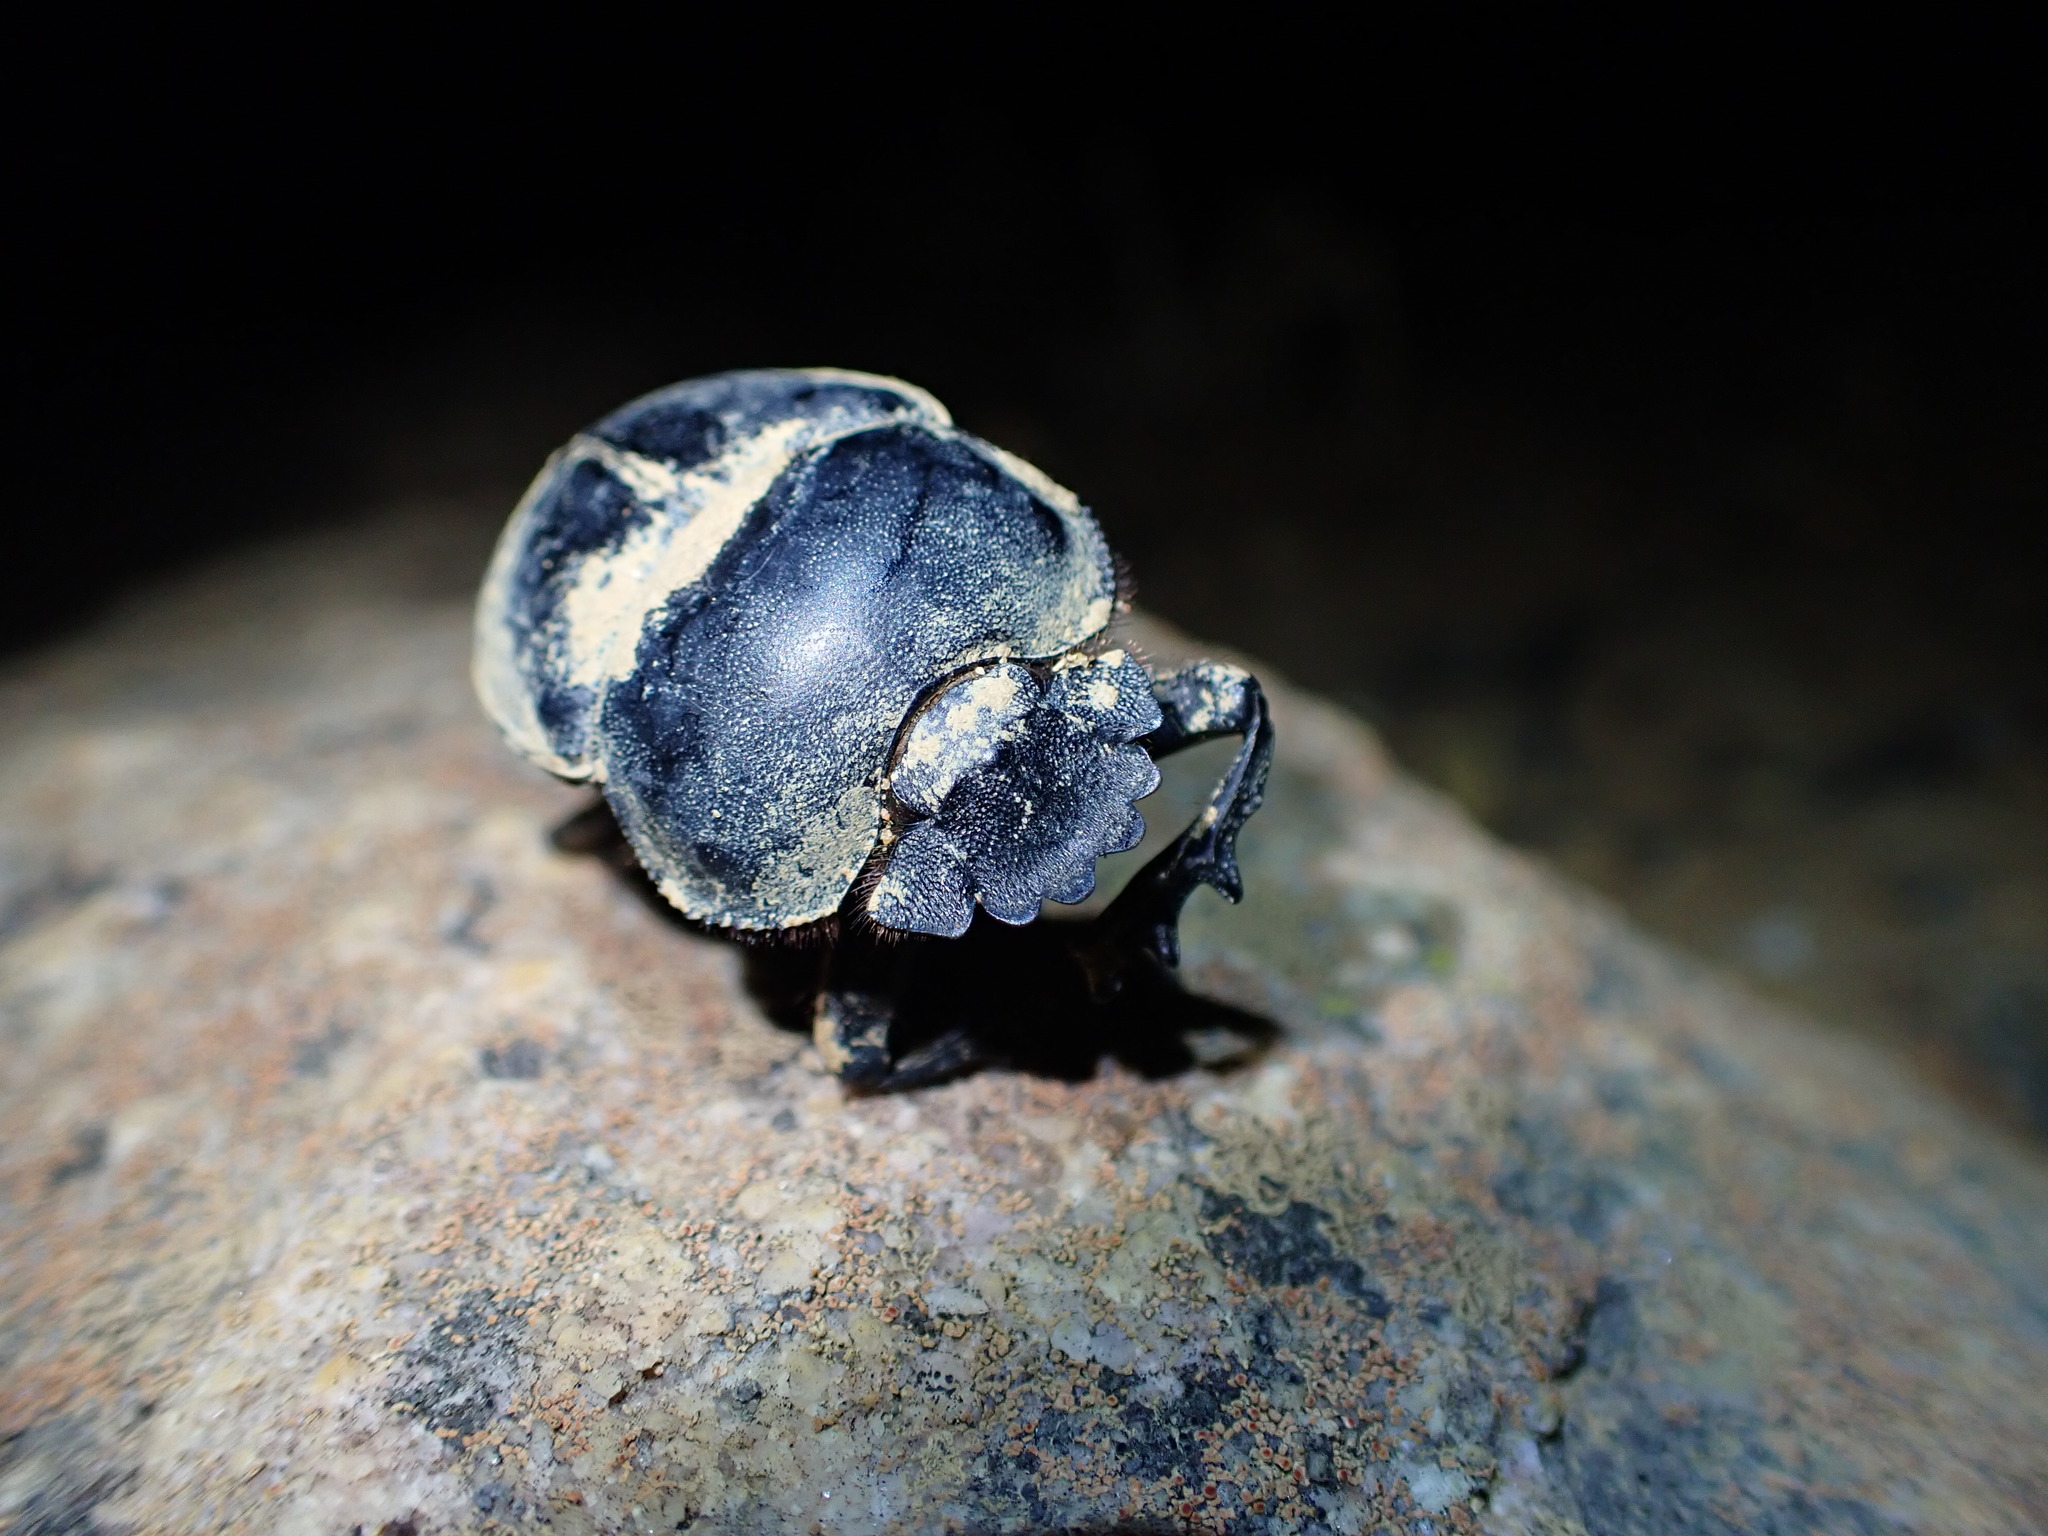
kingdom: Animalia
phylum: Arthropoda
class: Insecta
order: Coleoptera
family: Scarabaeidae
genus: Kheper
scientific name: Kheper bonellii
